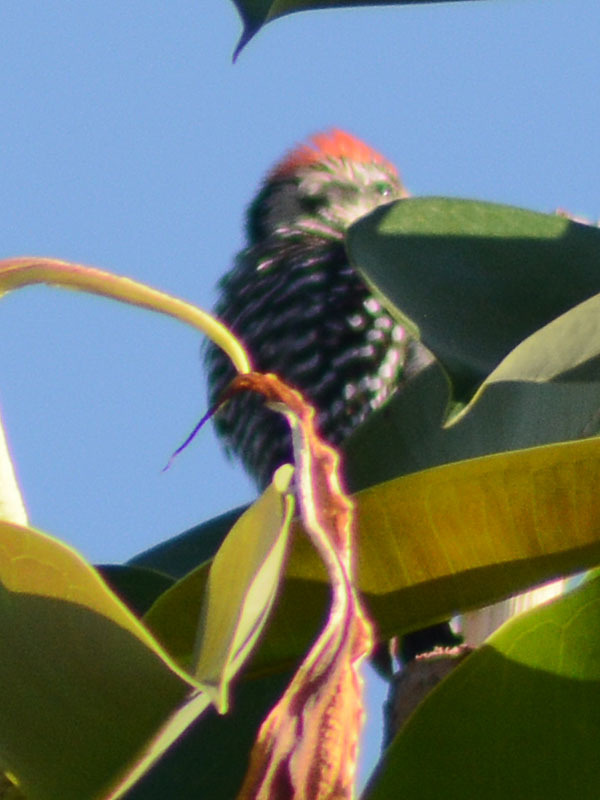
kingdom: Animalia
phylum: Chordata
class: Aves
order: Piciformes
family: Picidae
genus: Dryobates
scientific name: Dryobates scalaris
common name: Ladder-backed woodpecker
